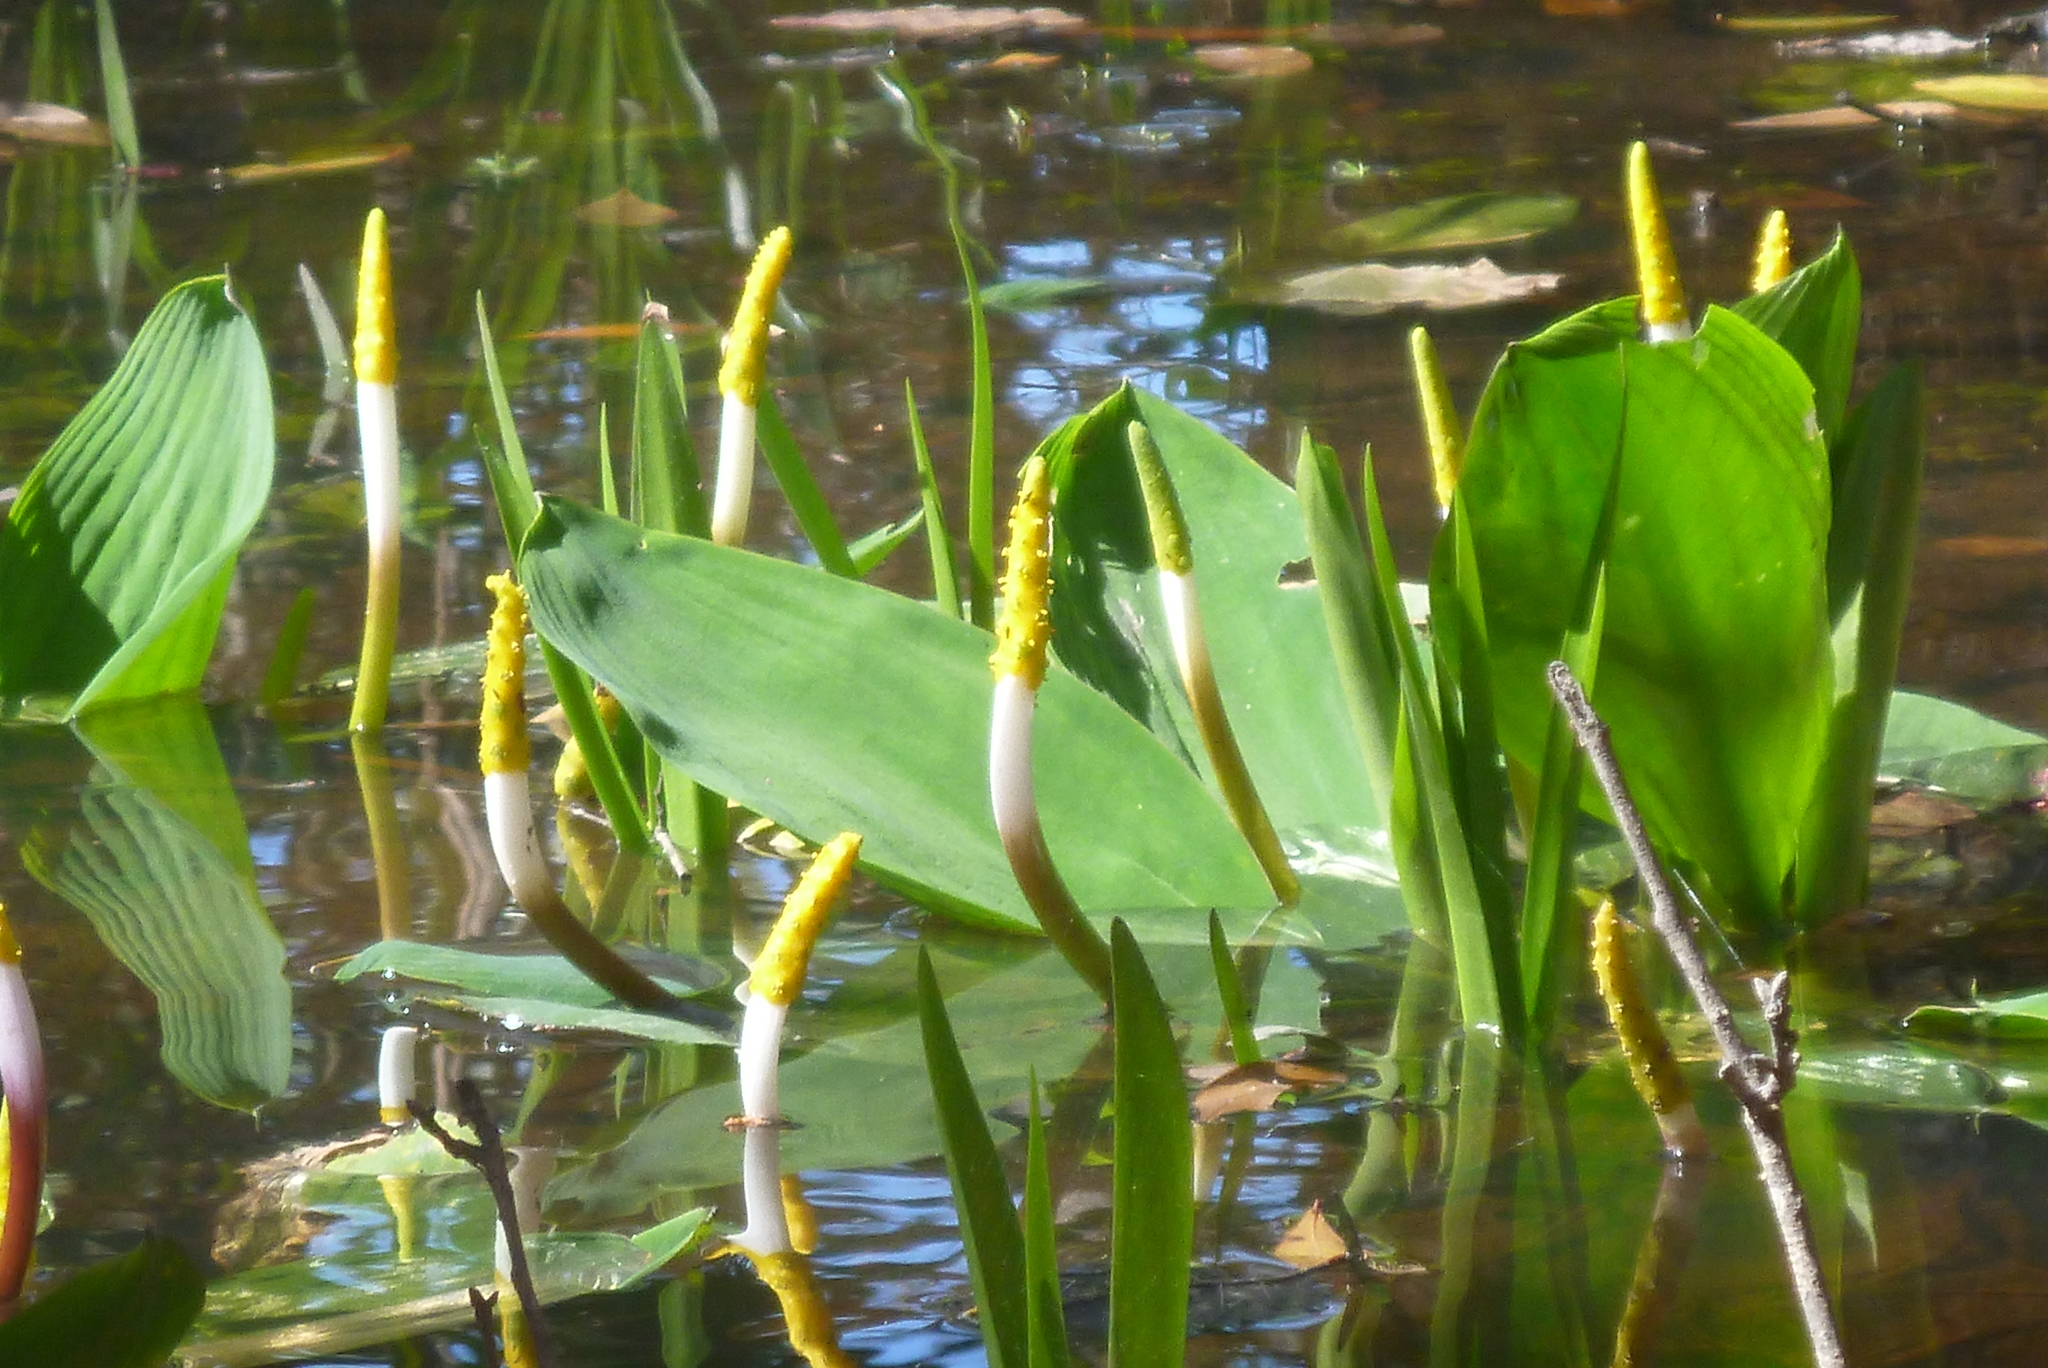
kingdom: Plantae
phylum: Tracheophyta
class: Liliopsida
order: Alismatales
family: Araceae
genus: Orontium
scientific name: Orontium aquaticum
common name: Golden-club
